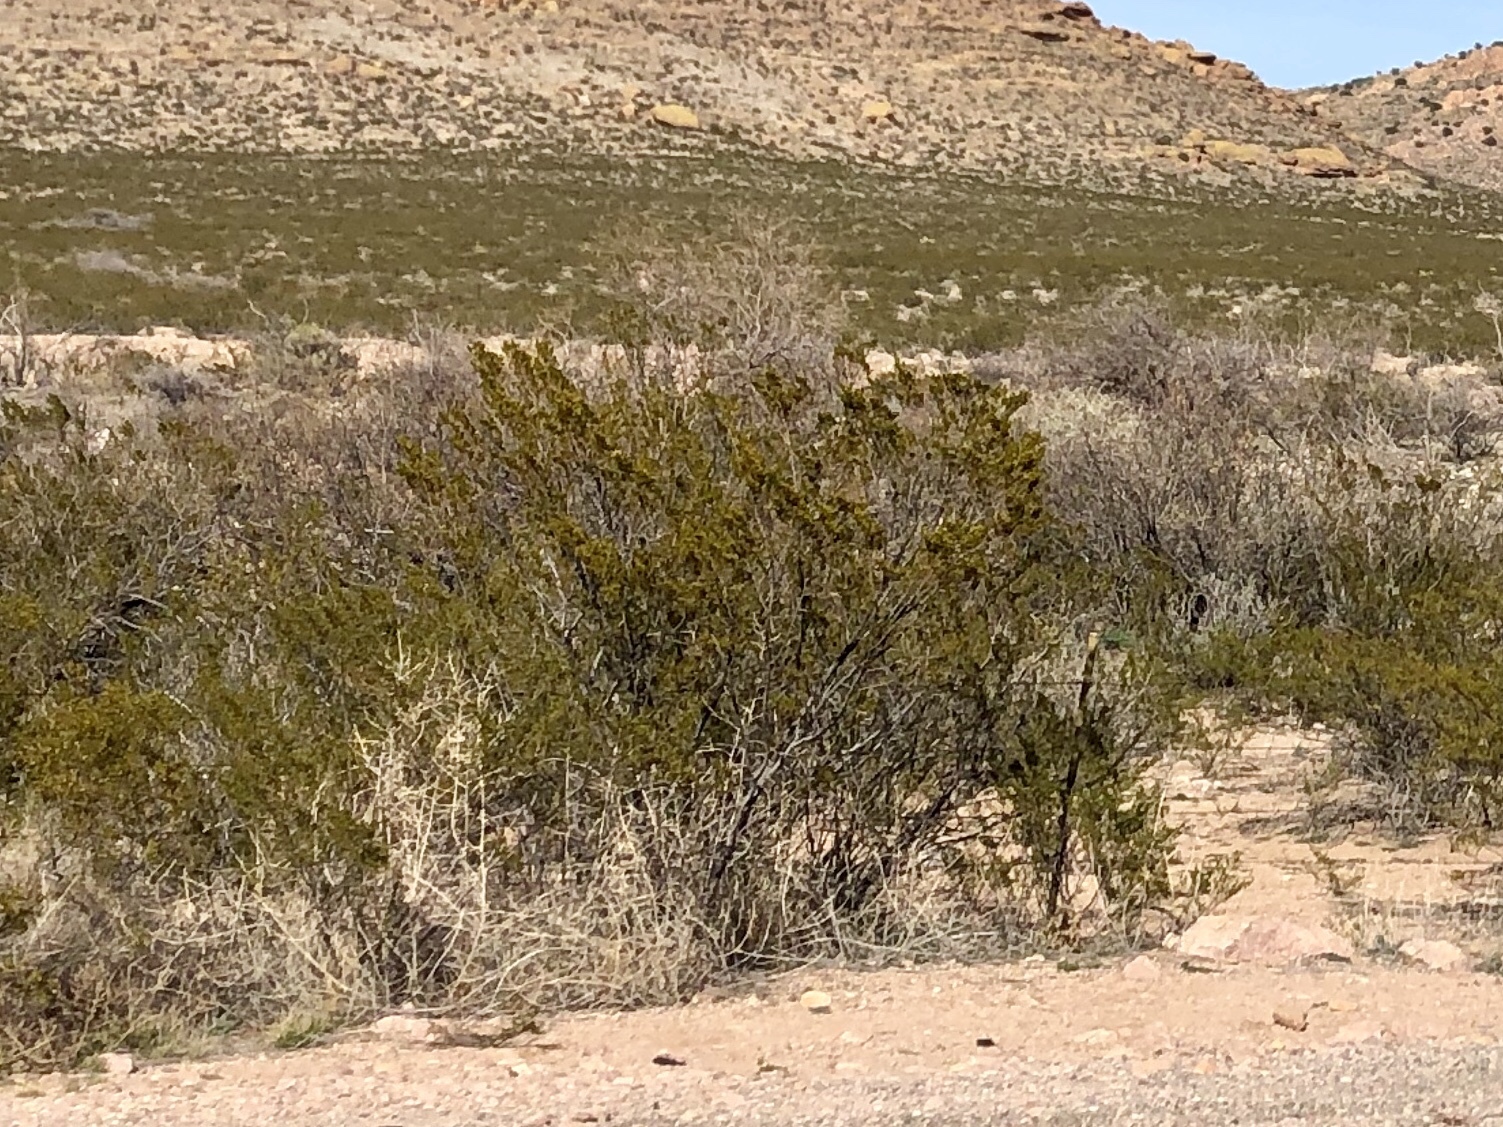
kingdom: Plantae
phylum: Tracheophyta
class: Magnoliopsida
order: Zygophyllales
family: Zygophyllaceae
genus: Larrea
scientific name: Larrea tridentata
